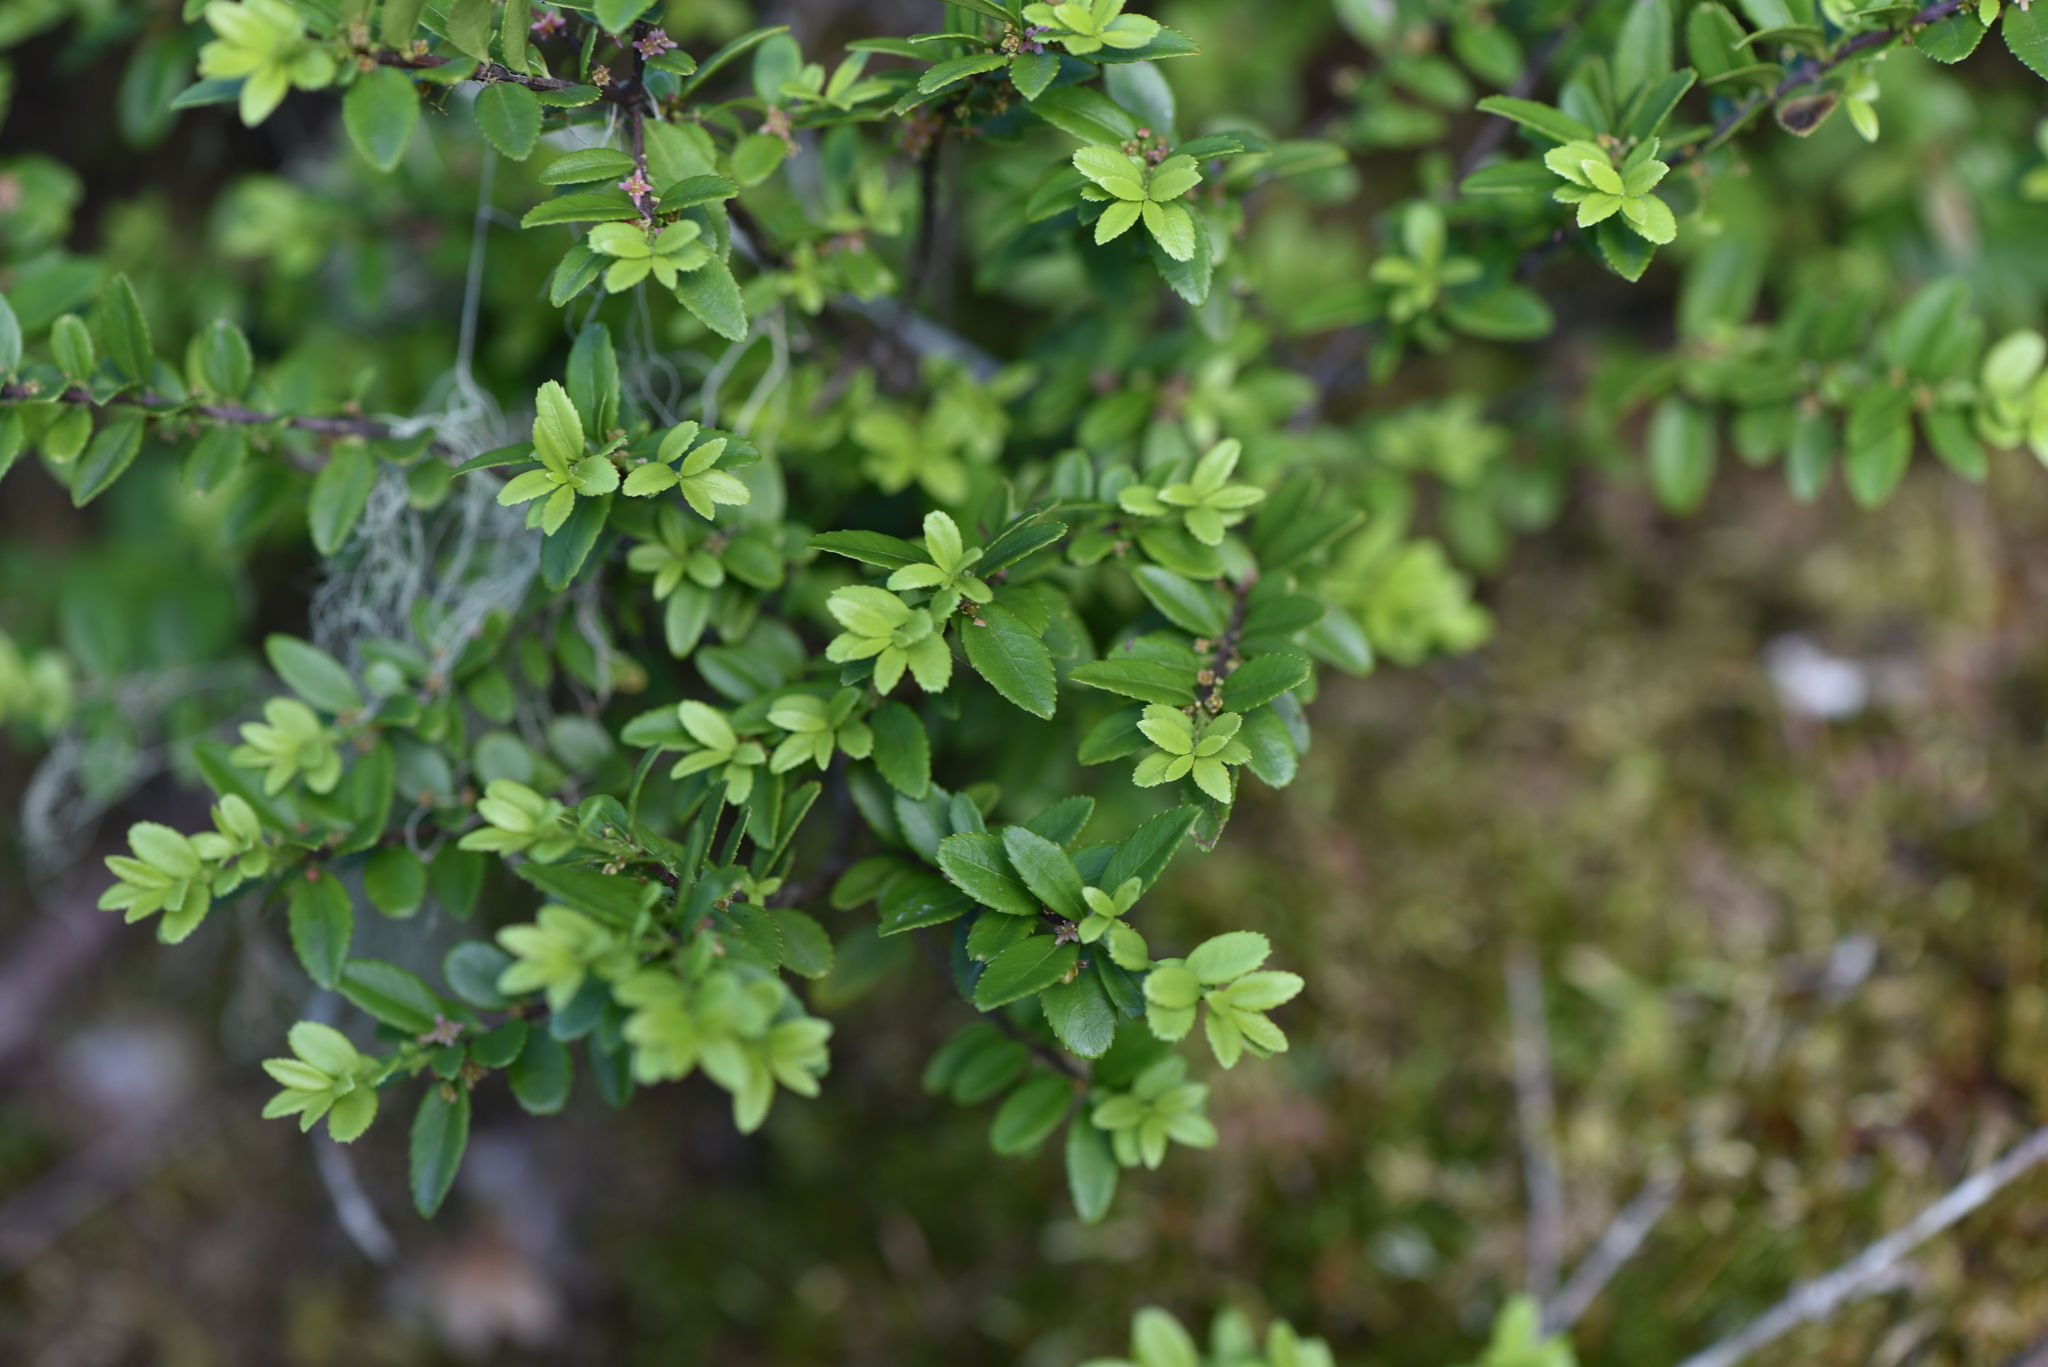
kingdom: Plantae
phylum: Tracheophyta
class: Magnoliopsida
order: Celastrales
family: Celastraceae
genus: Paxistima
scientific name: Paxistima myrsinites
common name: Mountain-lover
